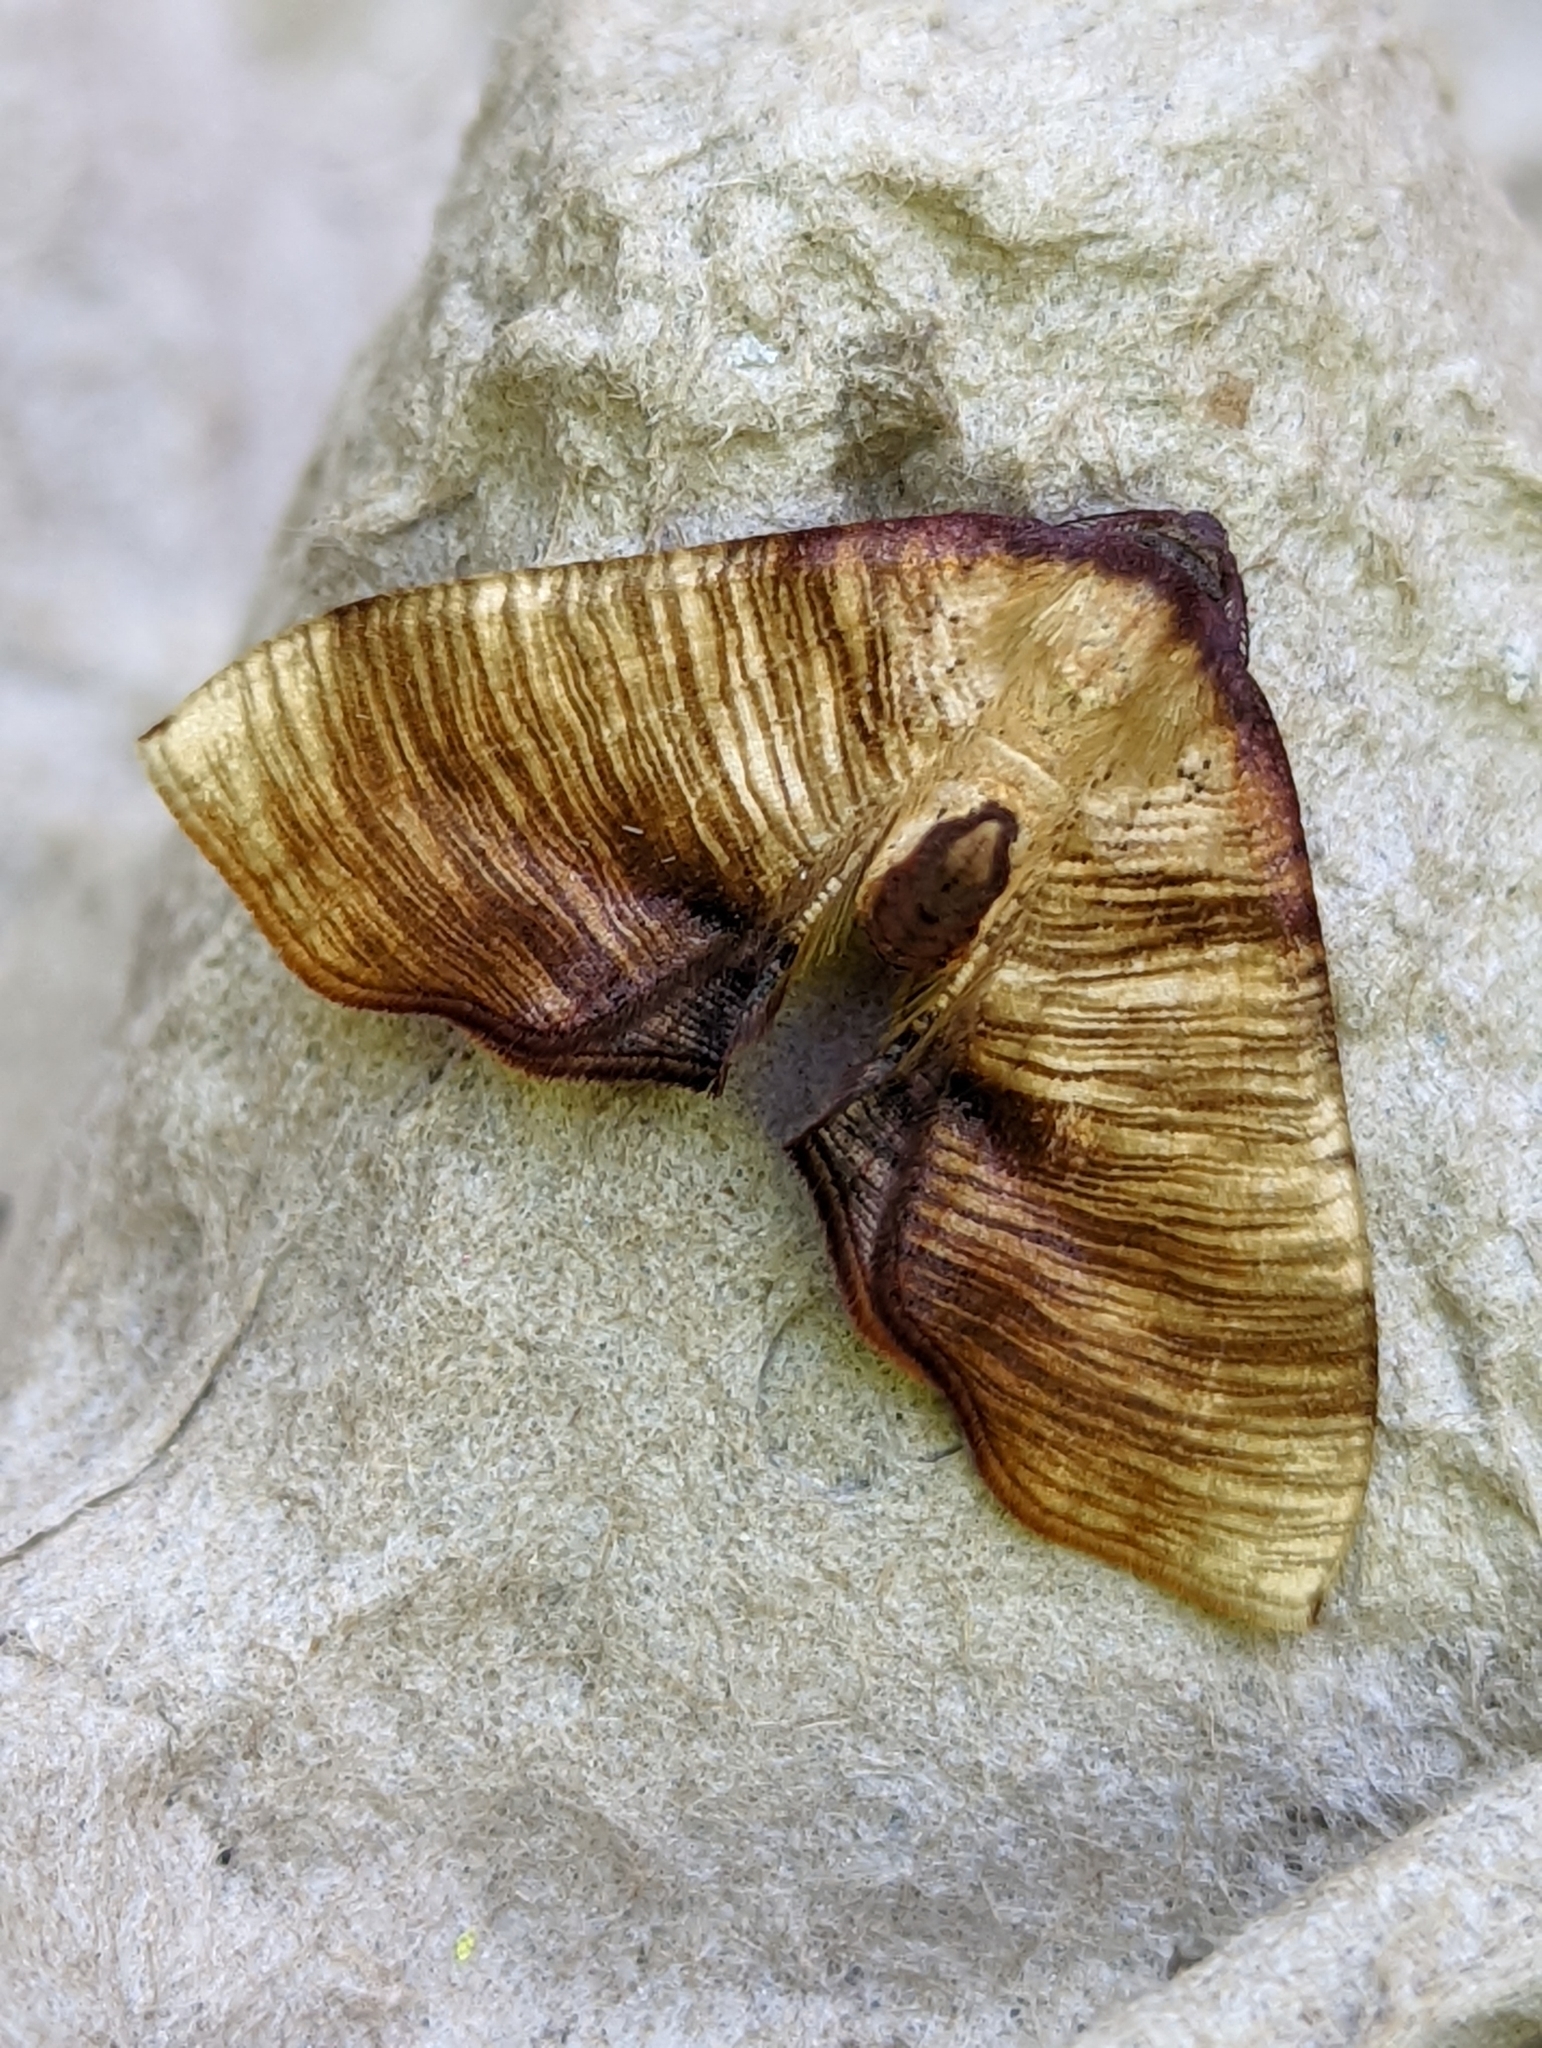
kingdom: Animalia
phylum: Arthropoda
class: Insecta
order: Lepidoptera
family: Geometridae
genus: Plagodis
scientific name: Plagodis dolabraria
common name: Scorched wing
